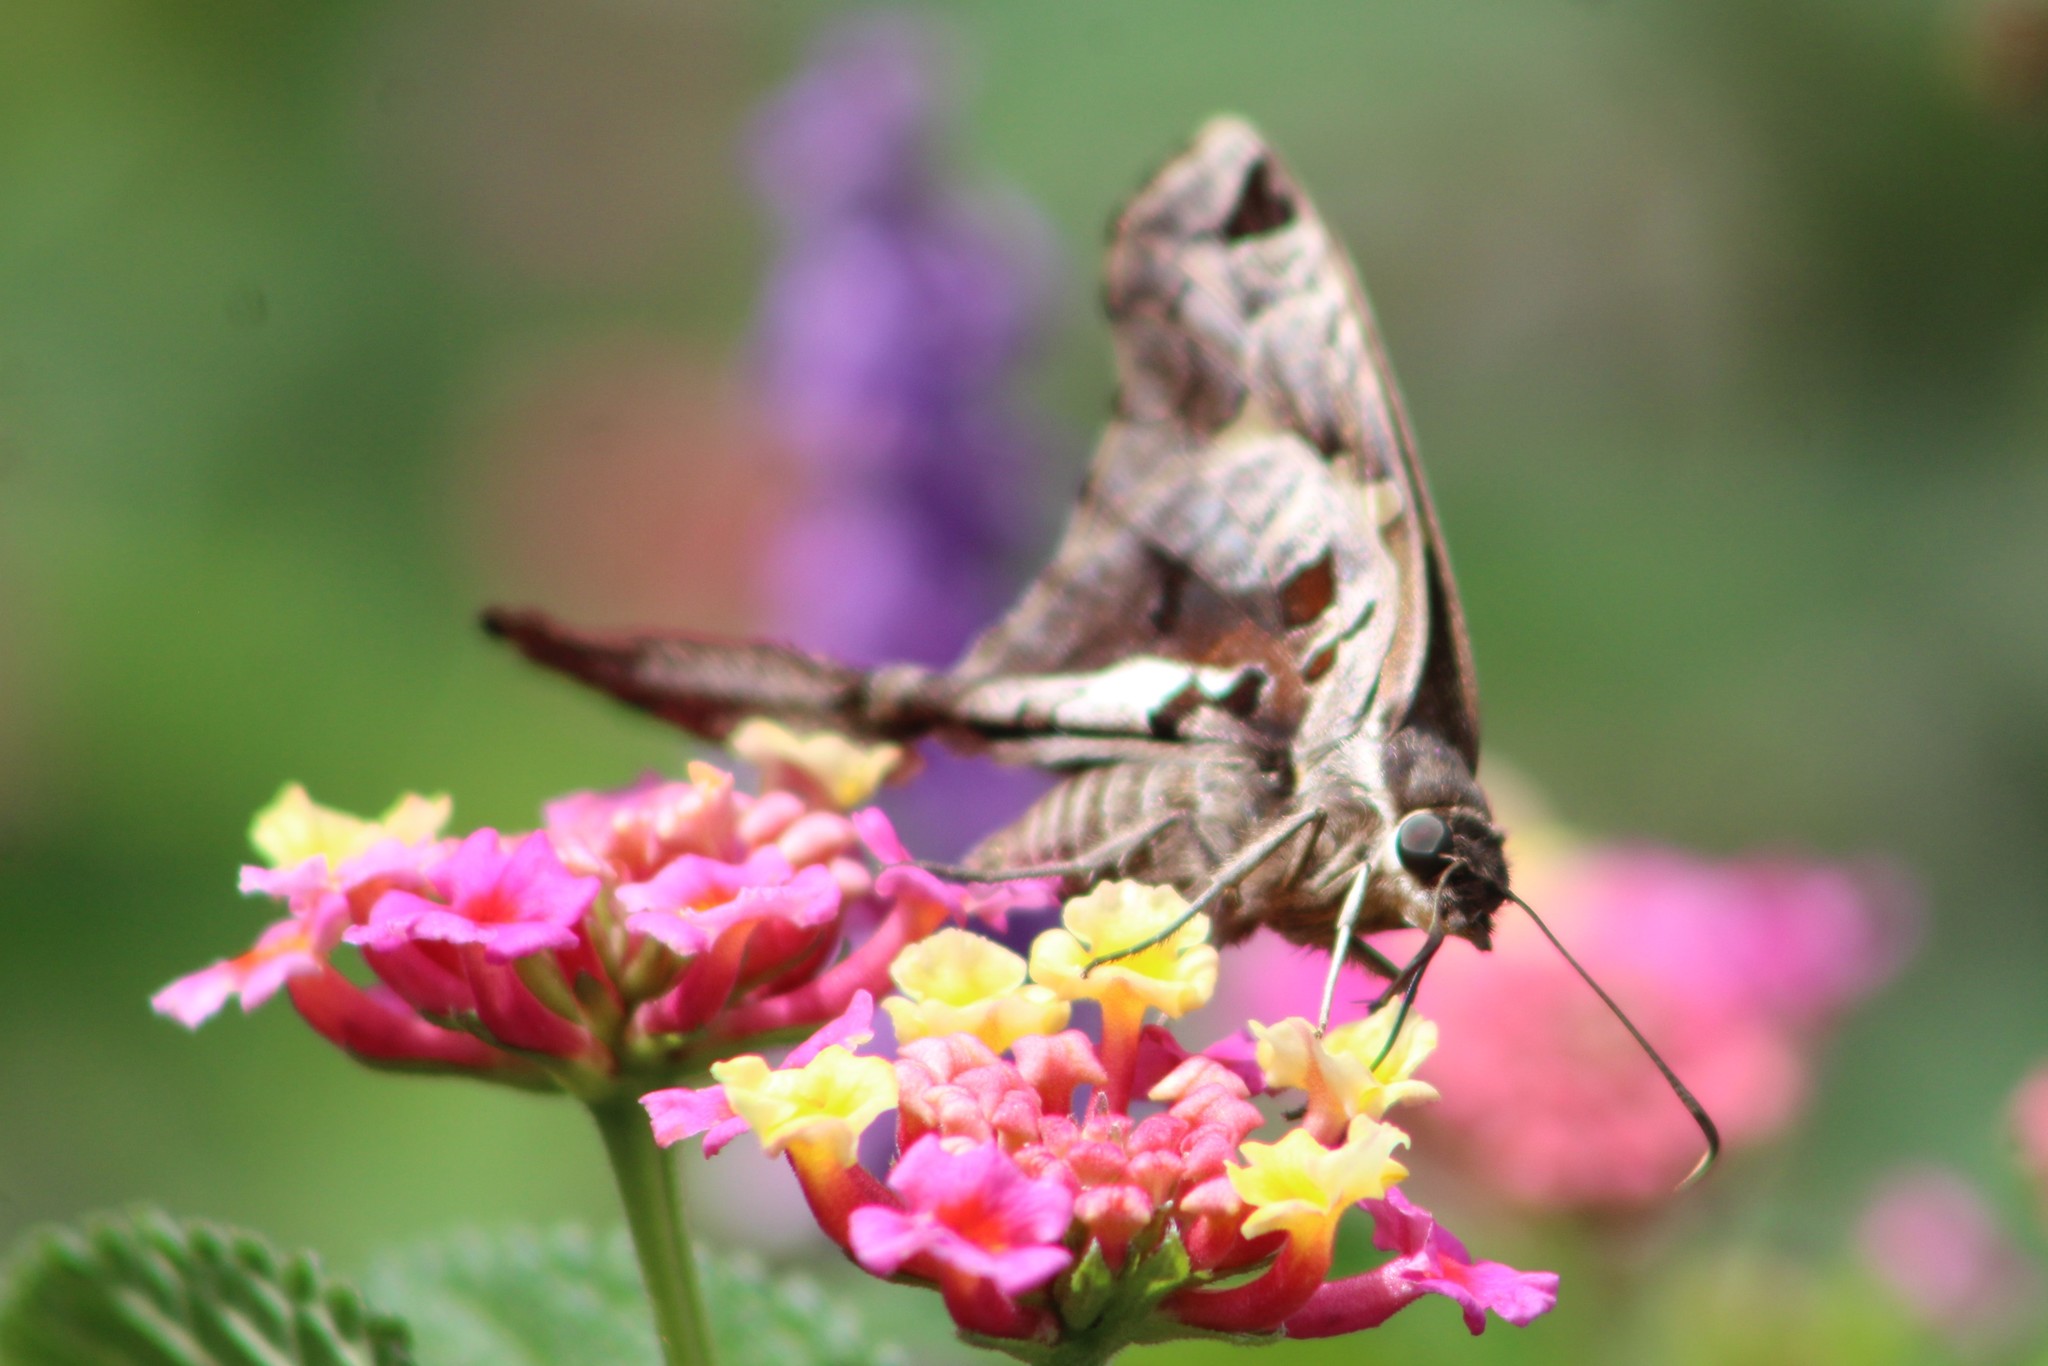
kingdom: Animalia
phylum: Arthropoda
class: Insecta
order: Lepidoptera
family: Hesperiidae
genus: Chioides
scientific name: Chioides zilpa
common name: Zilpa longtail
